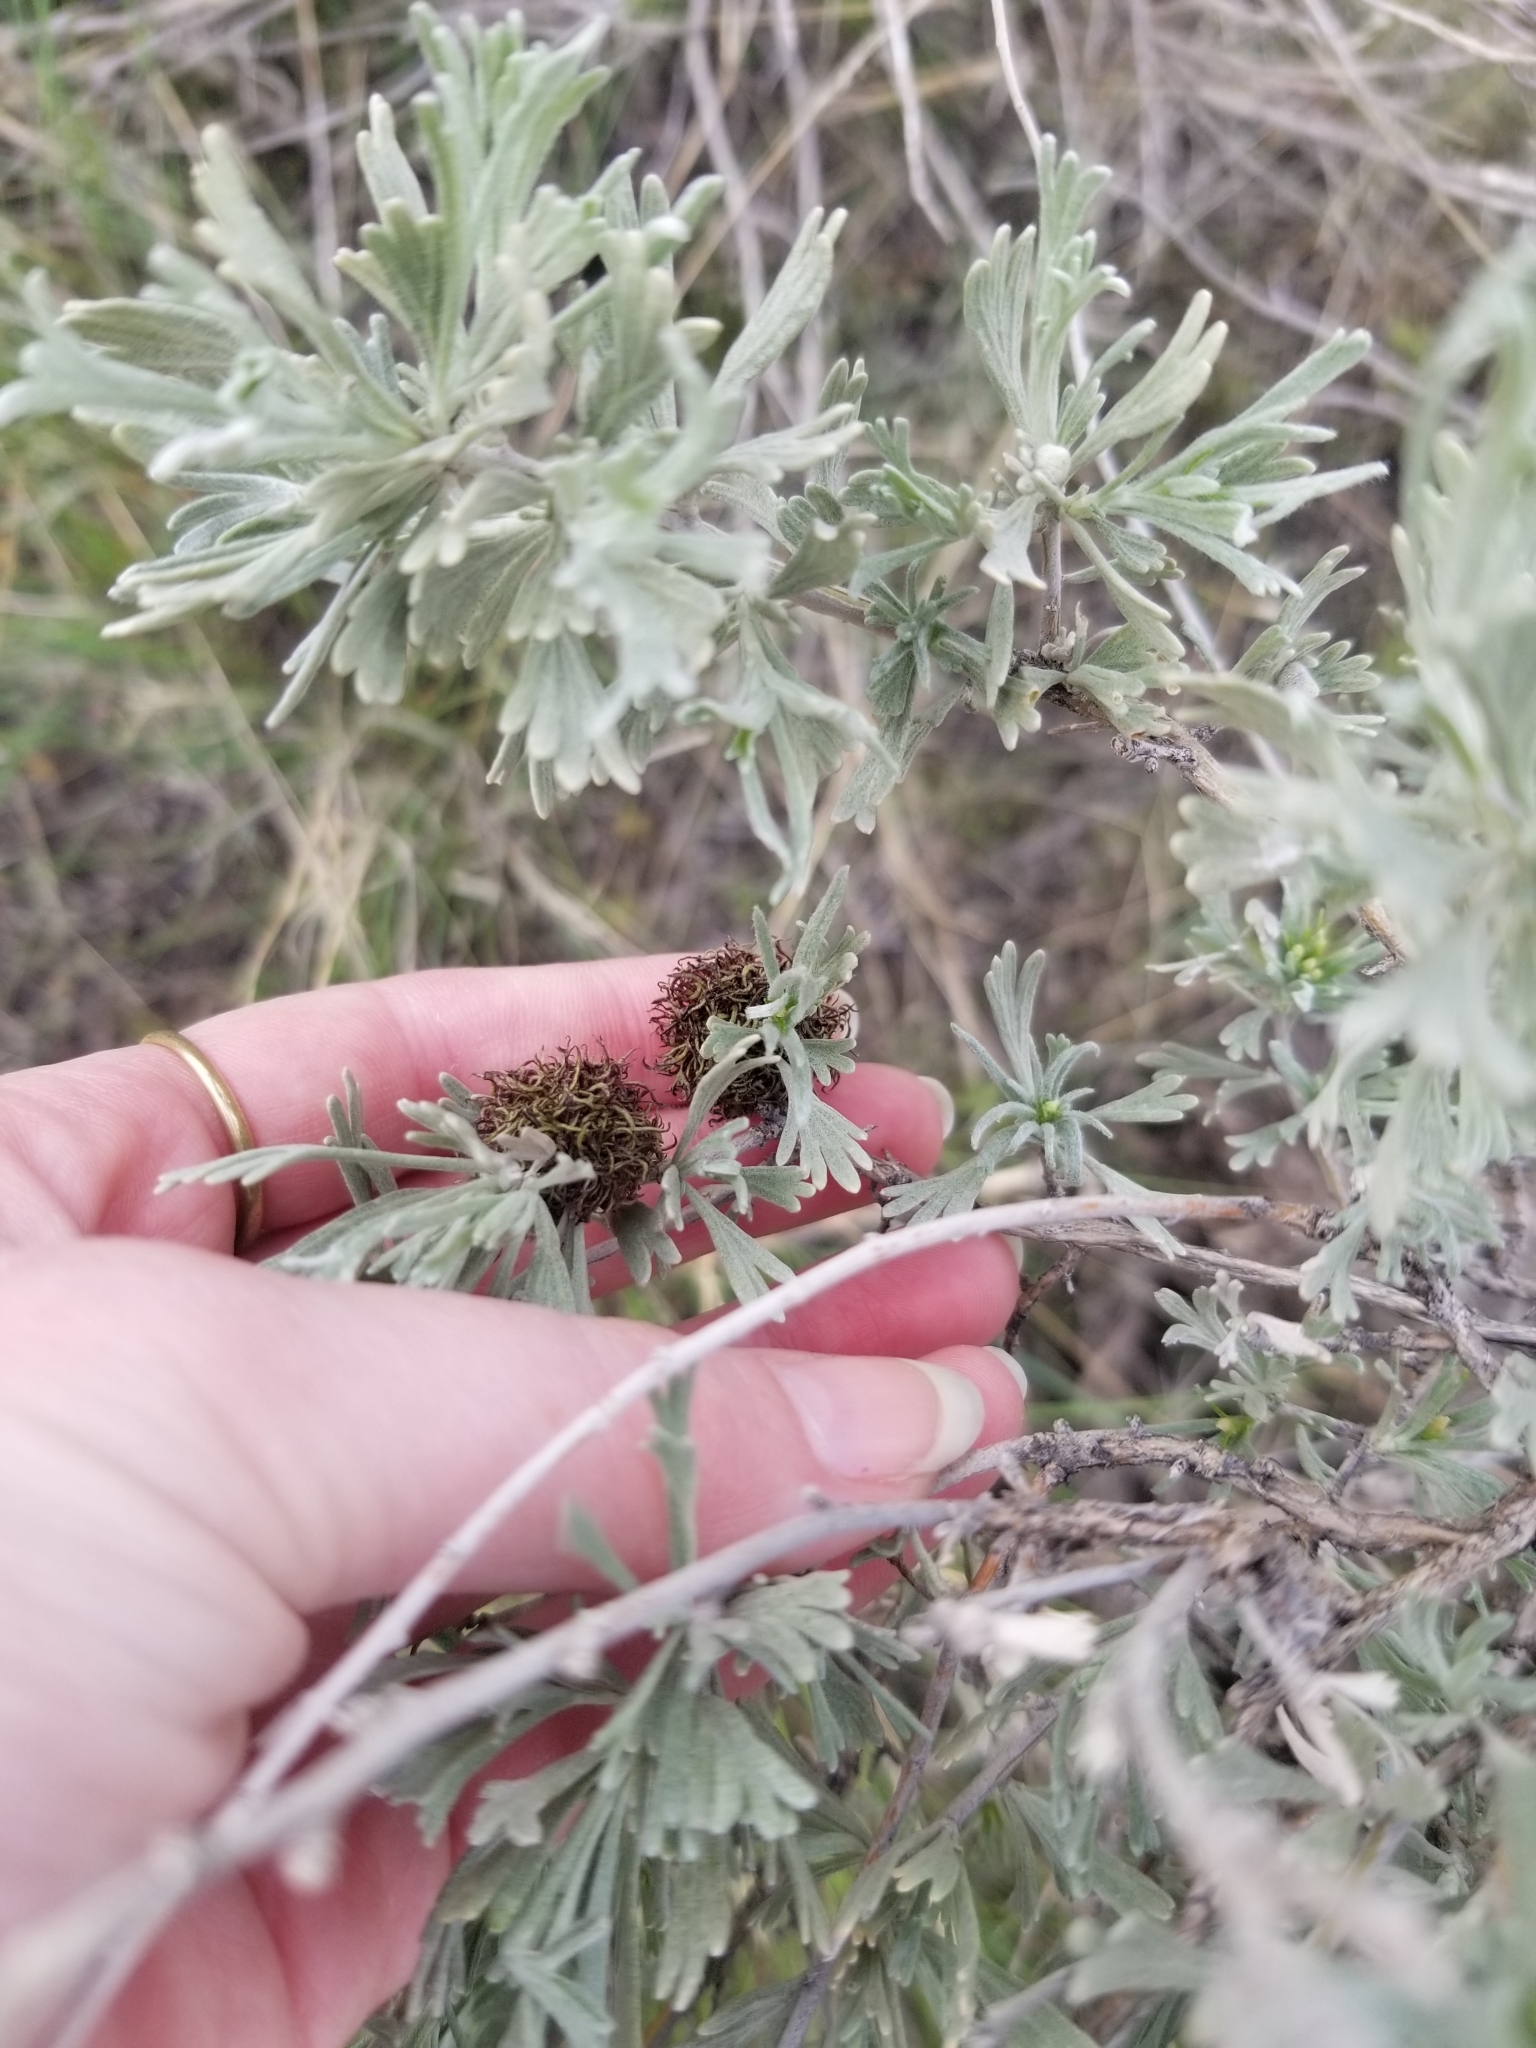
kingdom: Animalia
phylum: Arthropoda
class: Insecta
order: Diptera
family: Cecidomyiidae
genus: Rhopalomyia
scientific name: Rhopalomyia medusa
